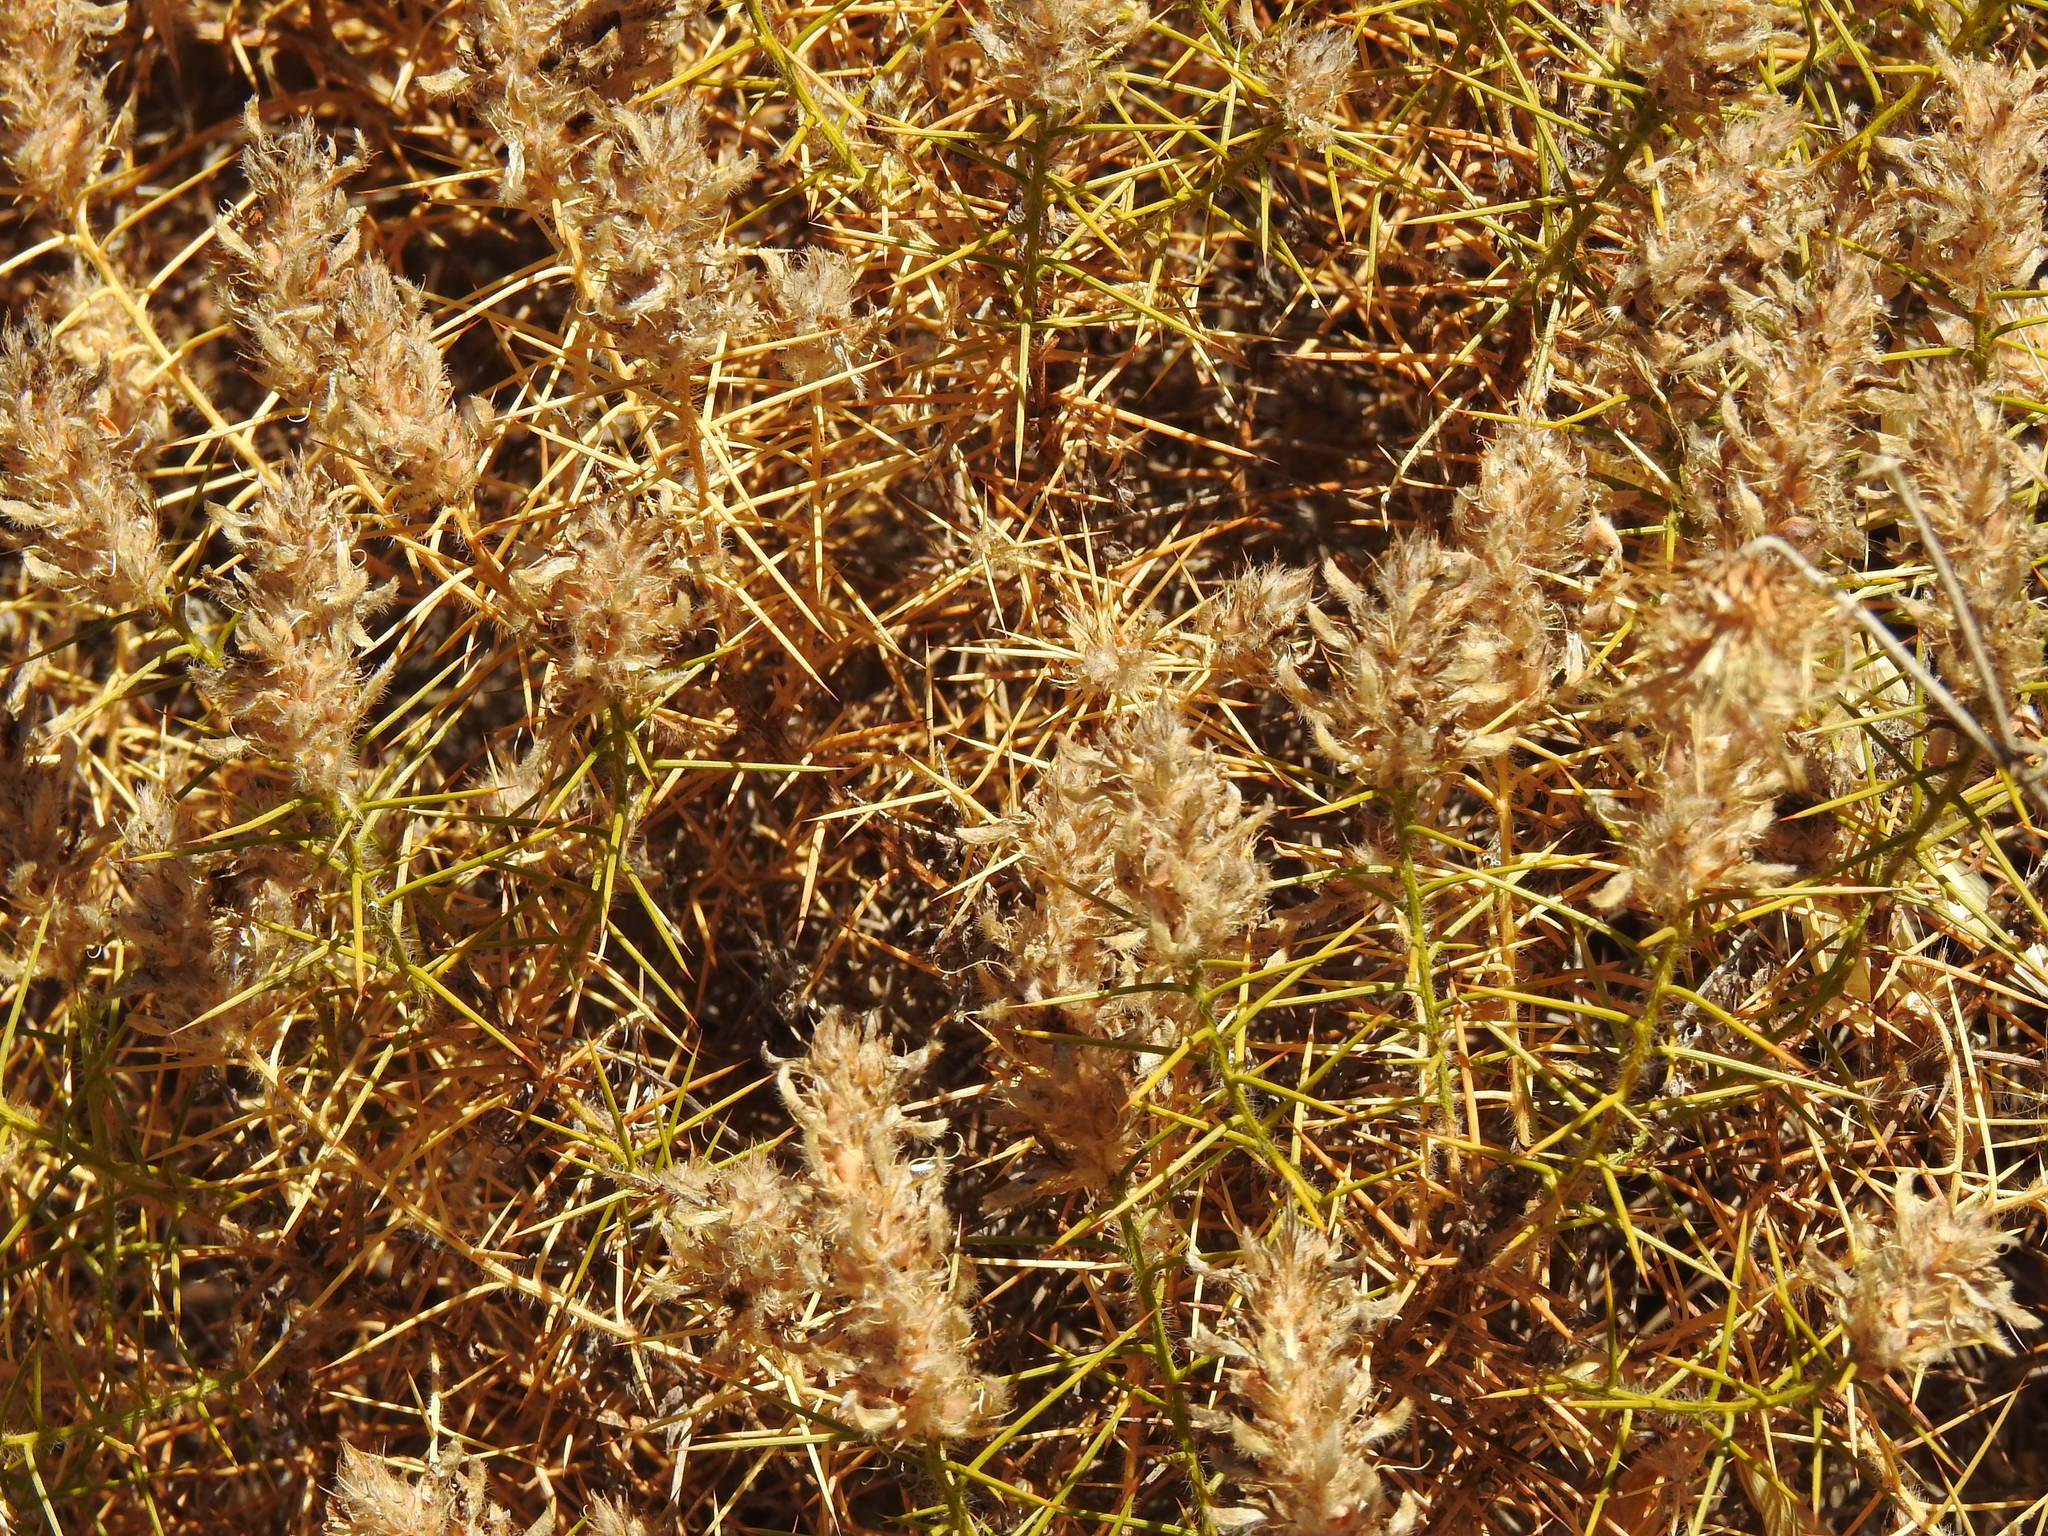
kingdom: Plantae
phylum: Tracheophyta
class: Magnoliopsida
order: Fabales
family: Fabaceae
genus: Genista
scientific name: Genista hirsuta
